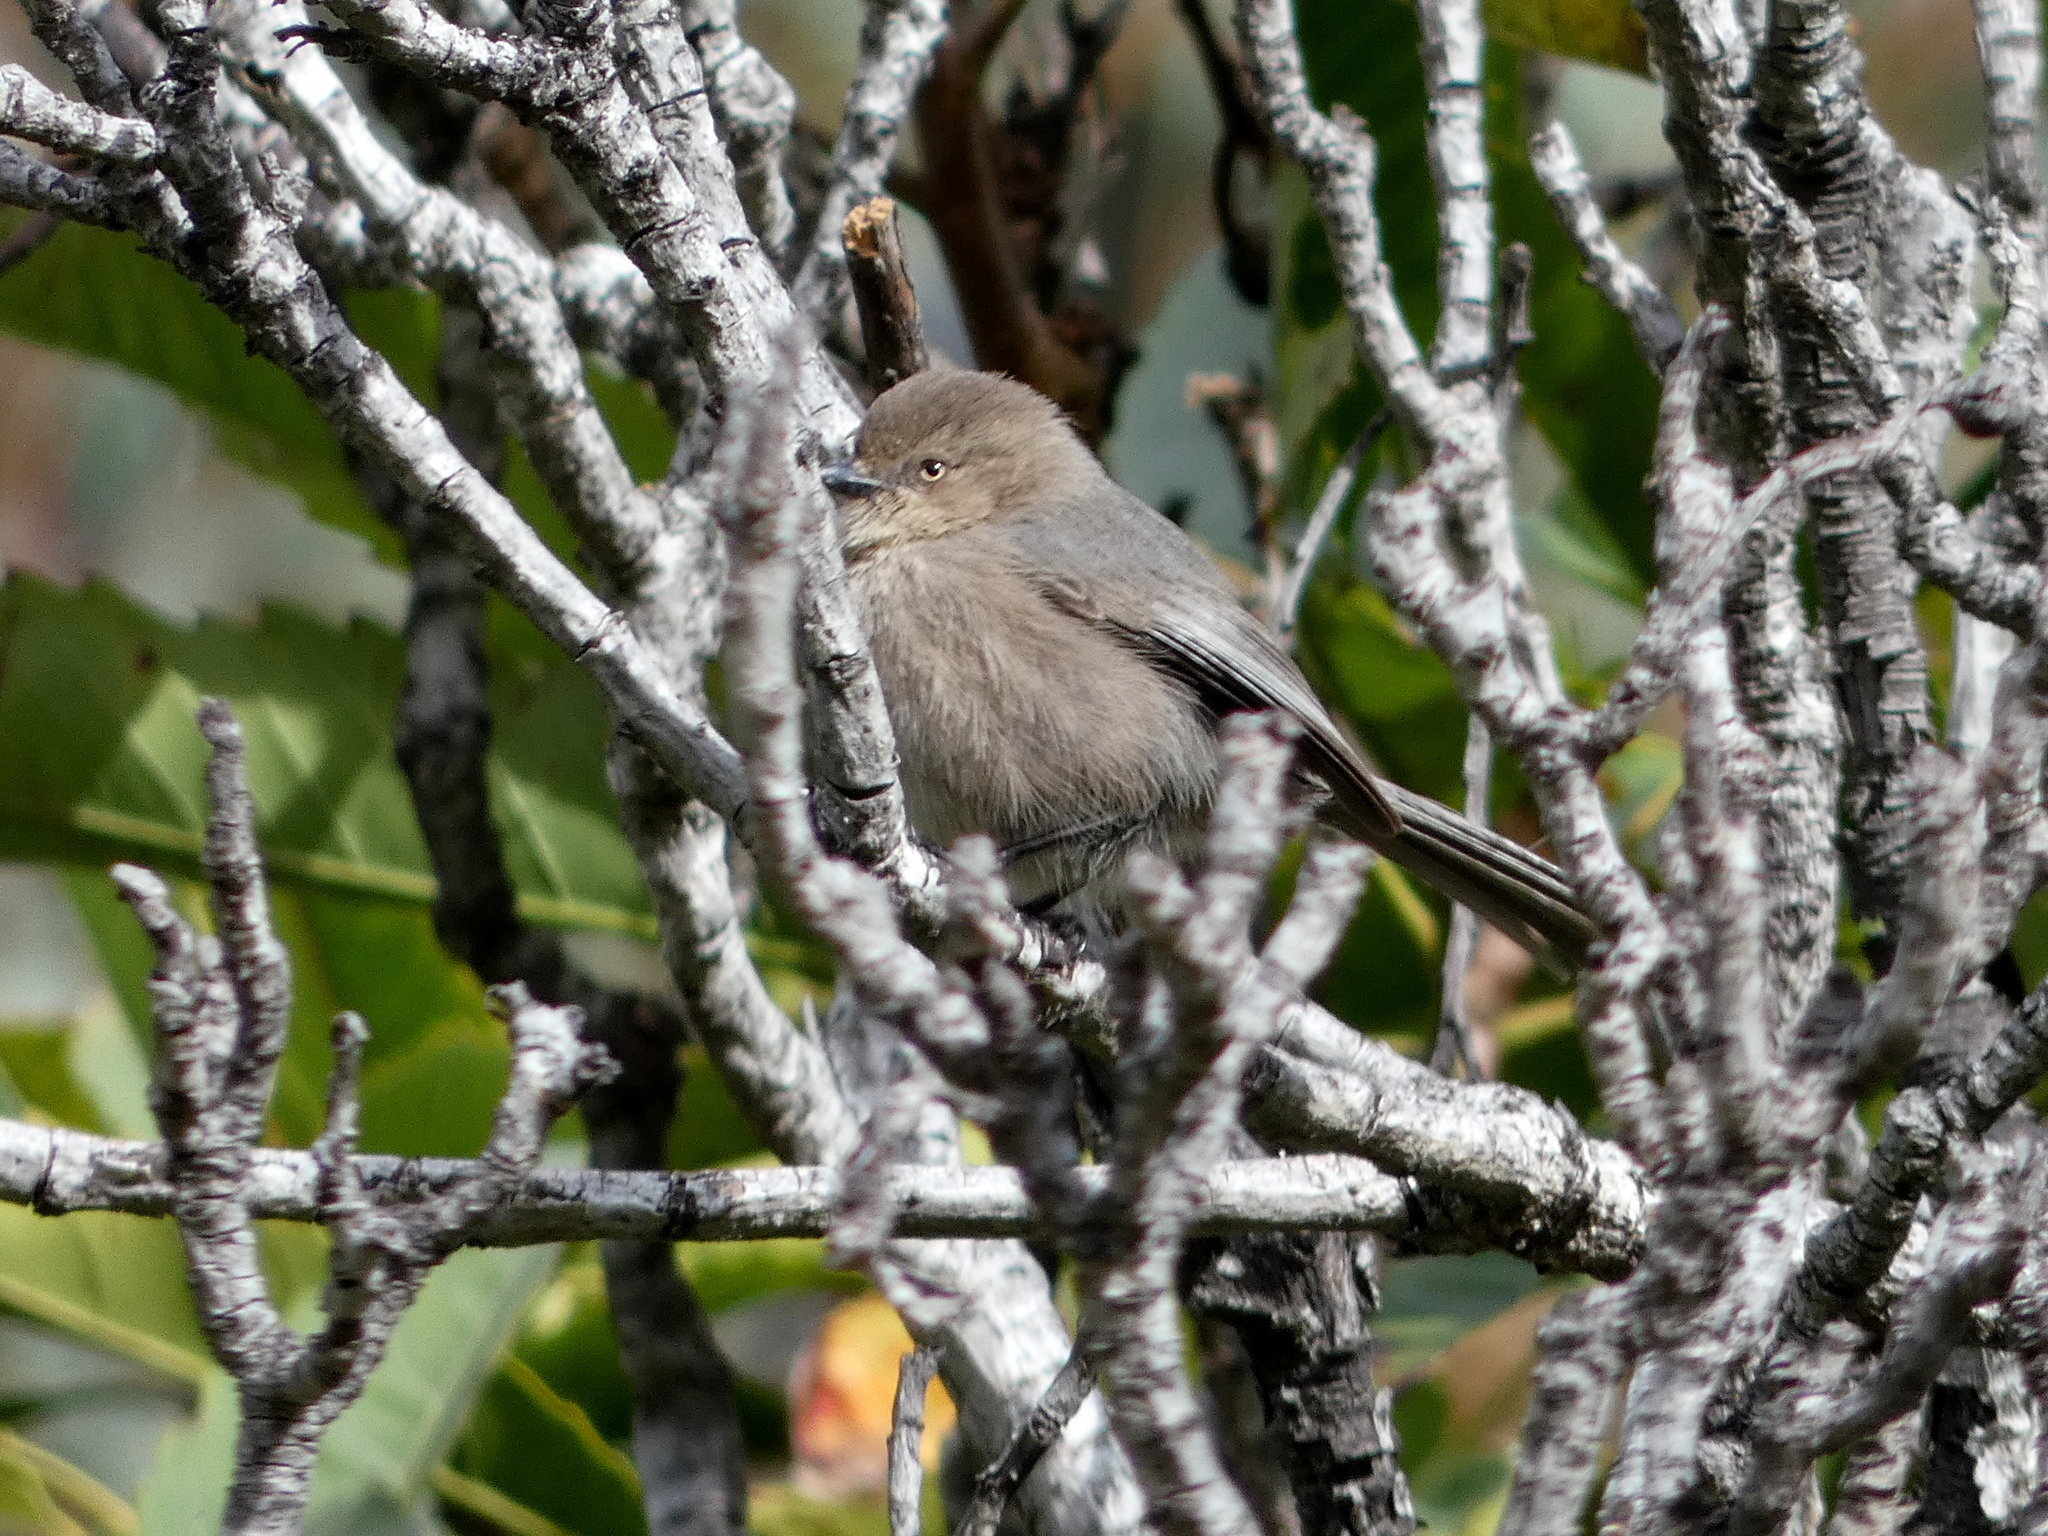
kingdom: Animalia
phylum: Chordata
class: Aves
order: Passeriformes
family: Aegithalidae
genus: Psaltriparus
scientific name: Psaltriparus minimus
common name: American bushtit
